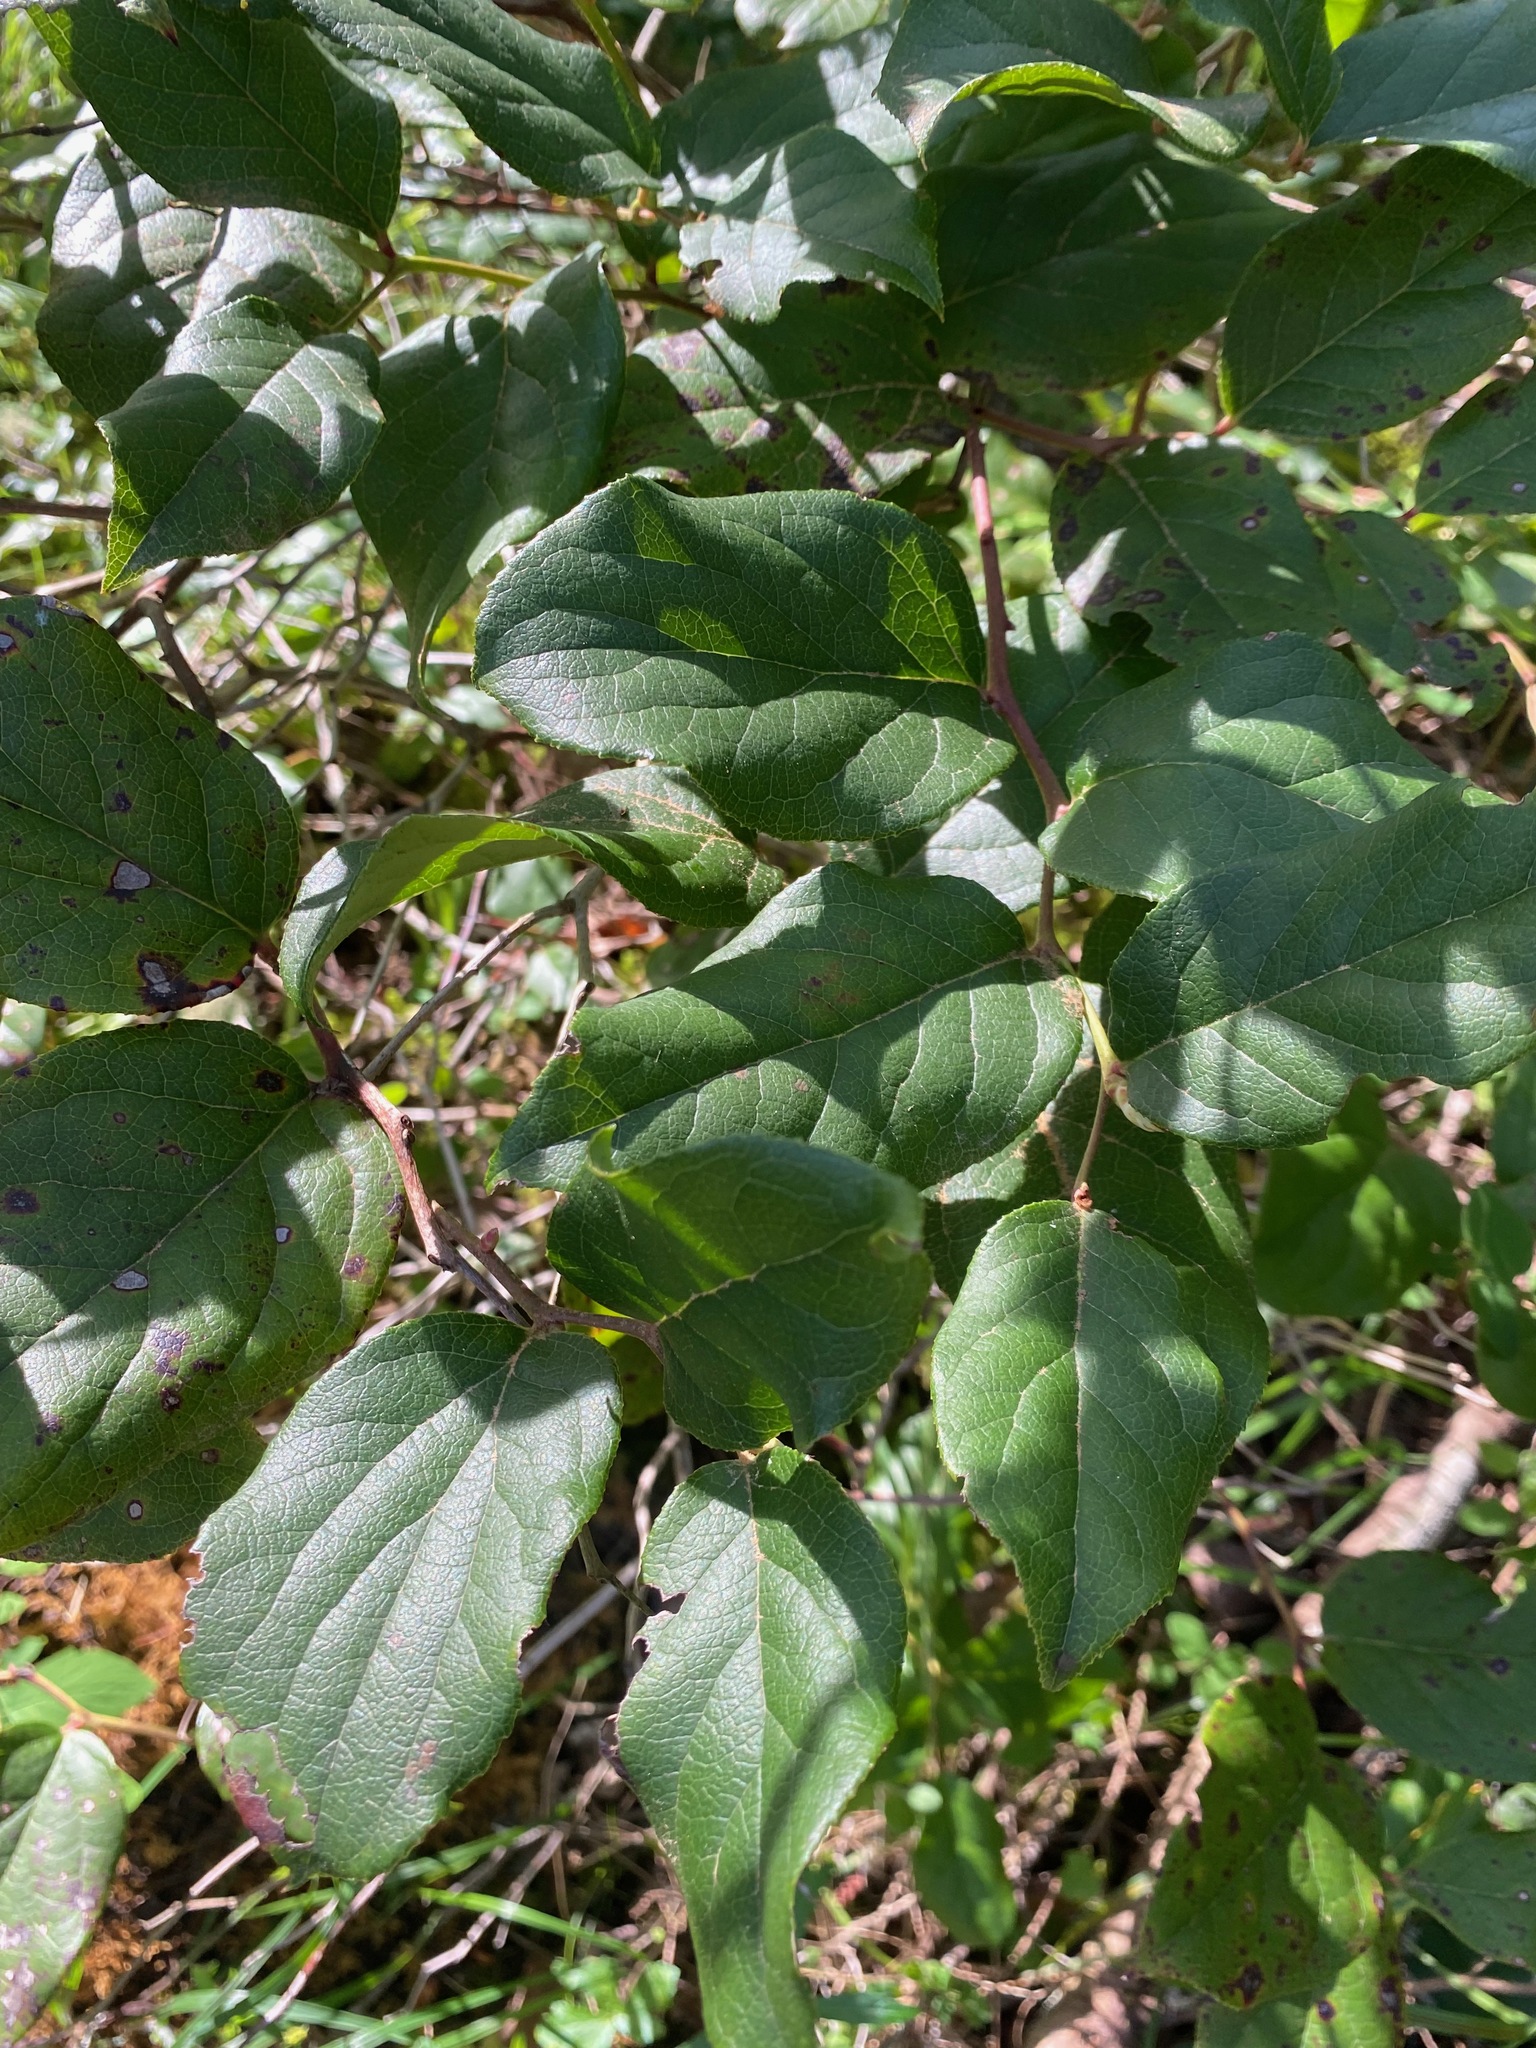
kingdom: Plantae
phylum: Tracheophyta
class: Magnoliopsida
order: Ericales
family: Ericaceae
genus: Gaultheria
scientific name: Gaultheria shallon
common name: Shallon
